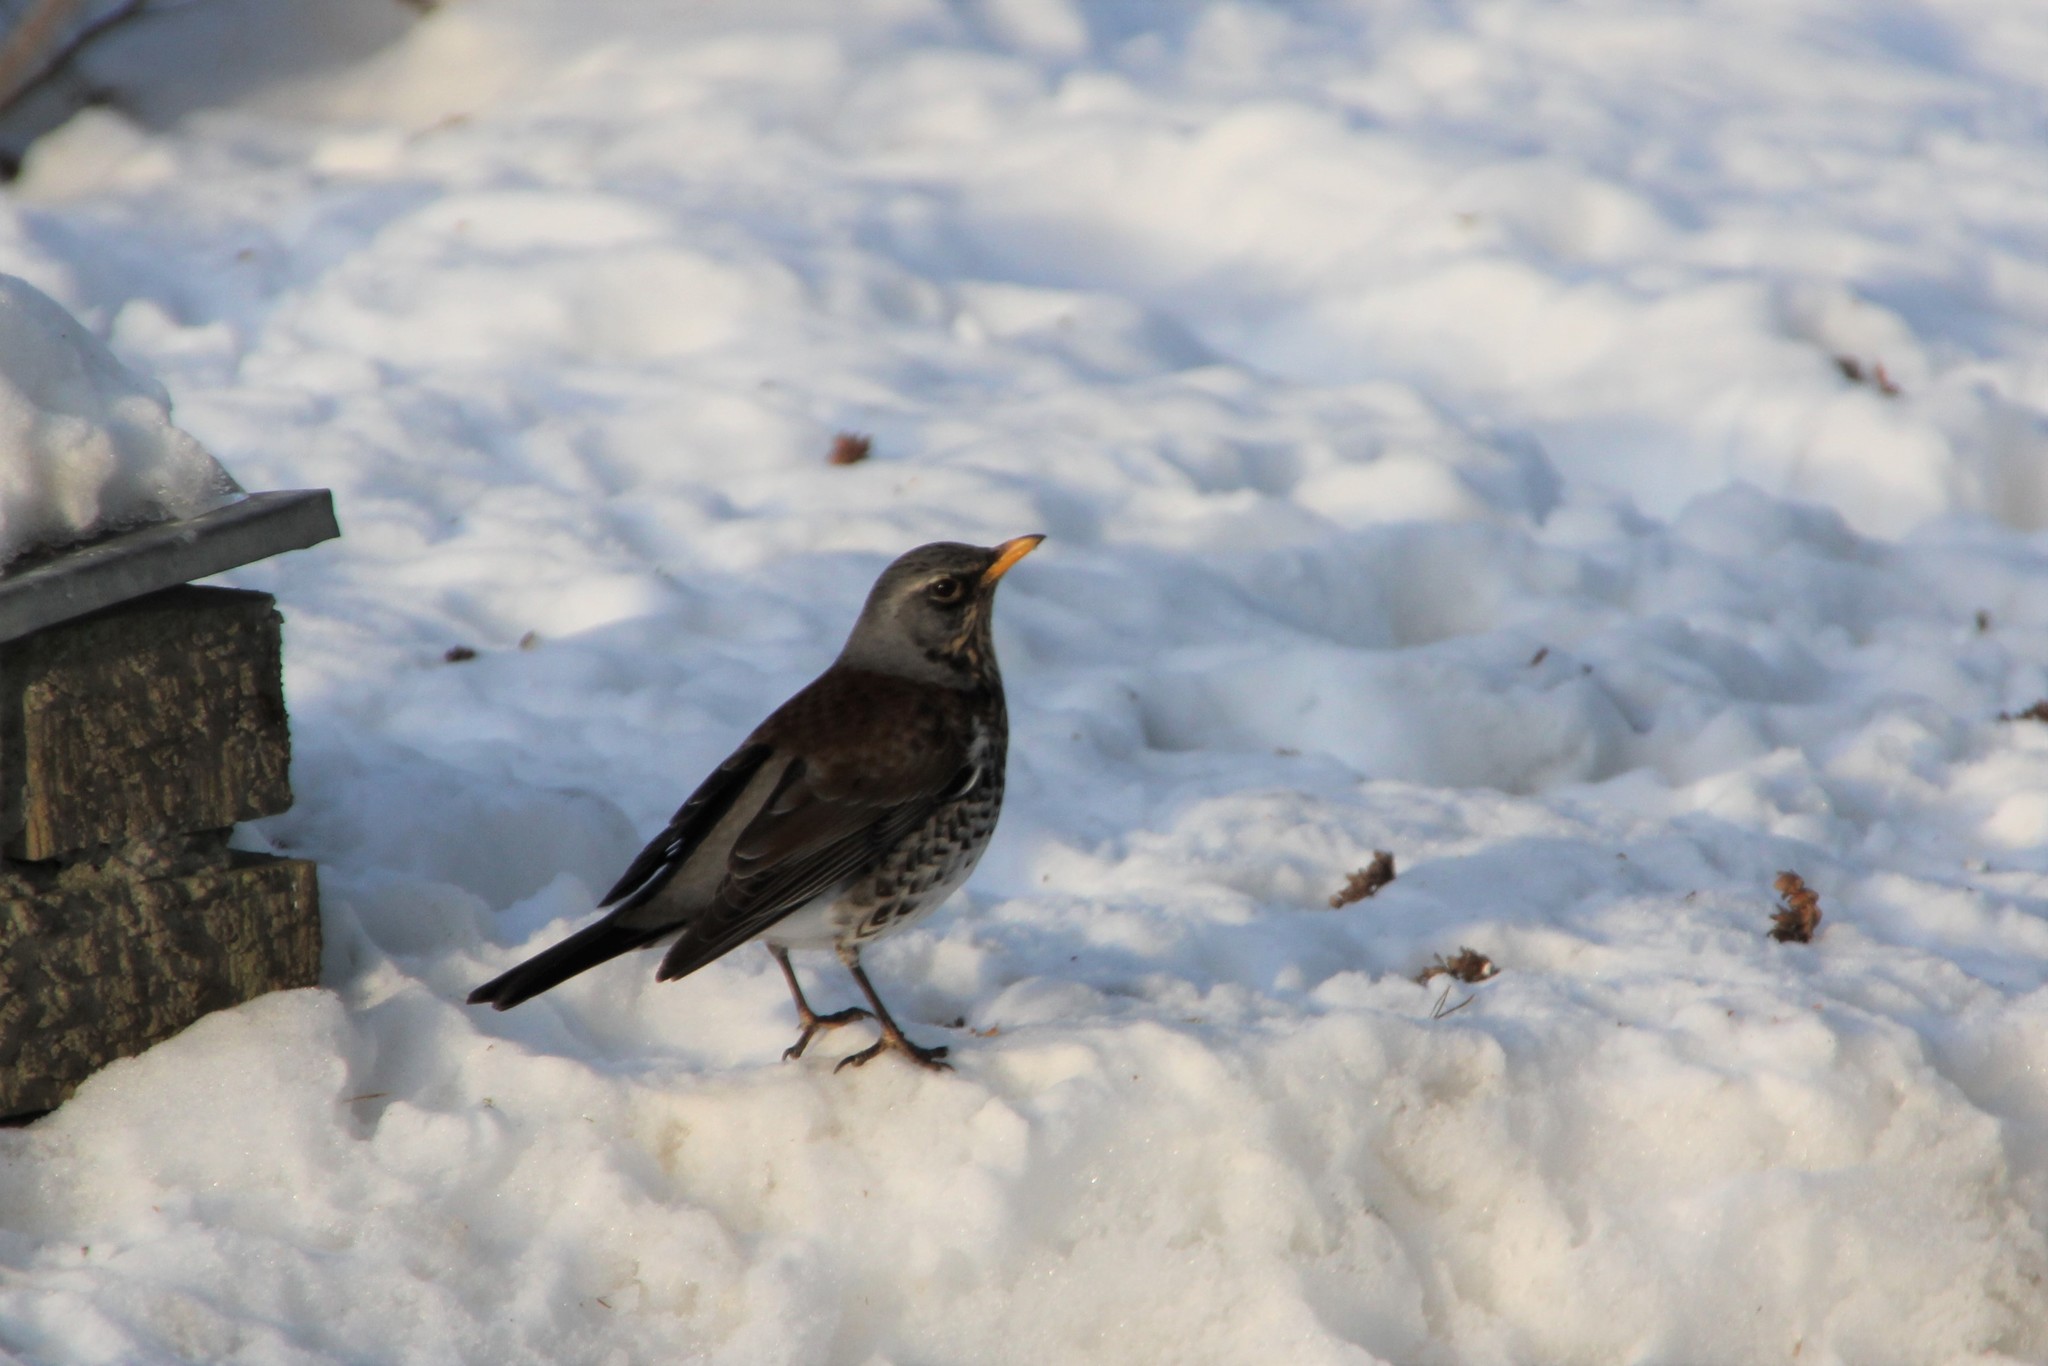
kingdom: Animalia
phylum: Chordata
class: Aves
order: Passeriformes
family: Turdidae
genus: Turdus
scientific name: Turdus pilaris
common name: Fieldfare
